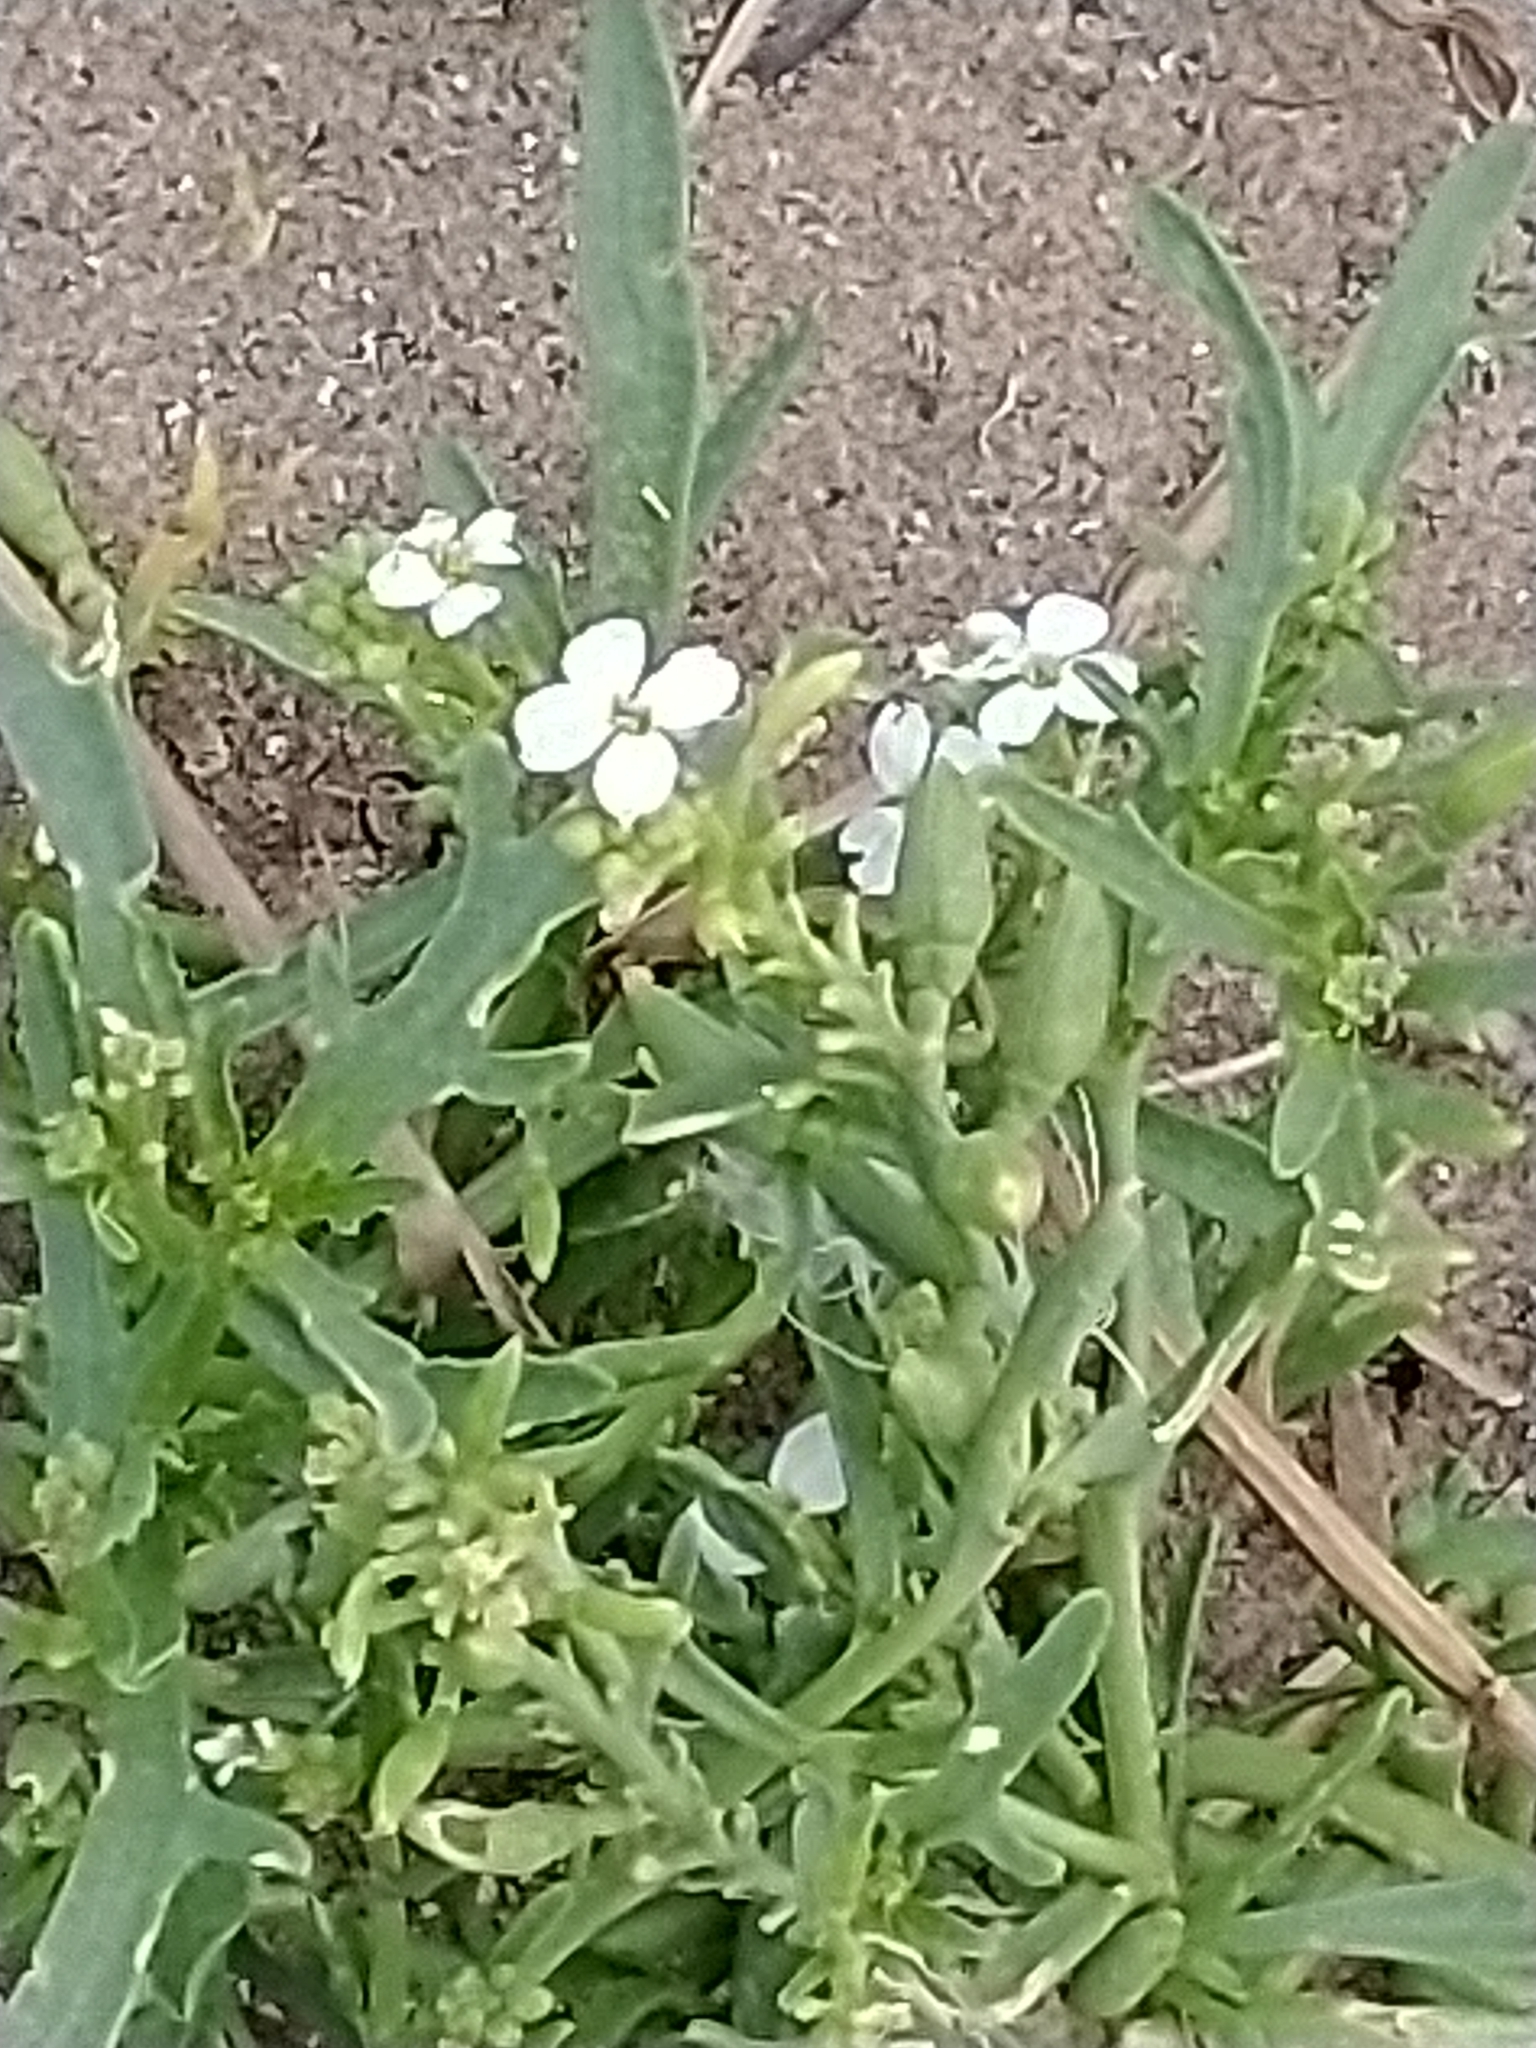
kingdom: Plantae
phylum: Tracheophyta
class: Magnoliopsida
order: Brassicales
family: Brassicaceae
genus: Cakile
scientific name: Cakile maritima
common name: Sea rocket
